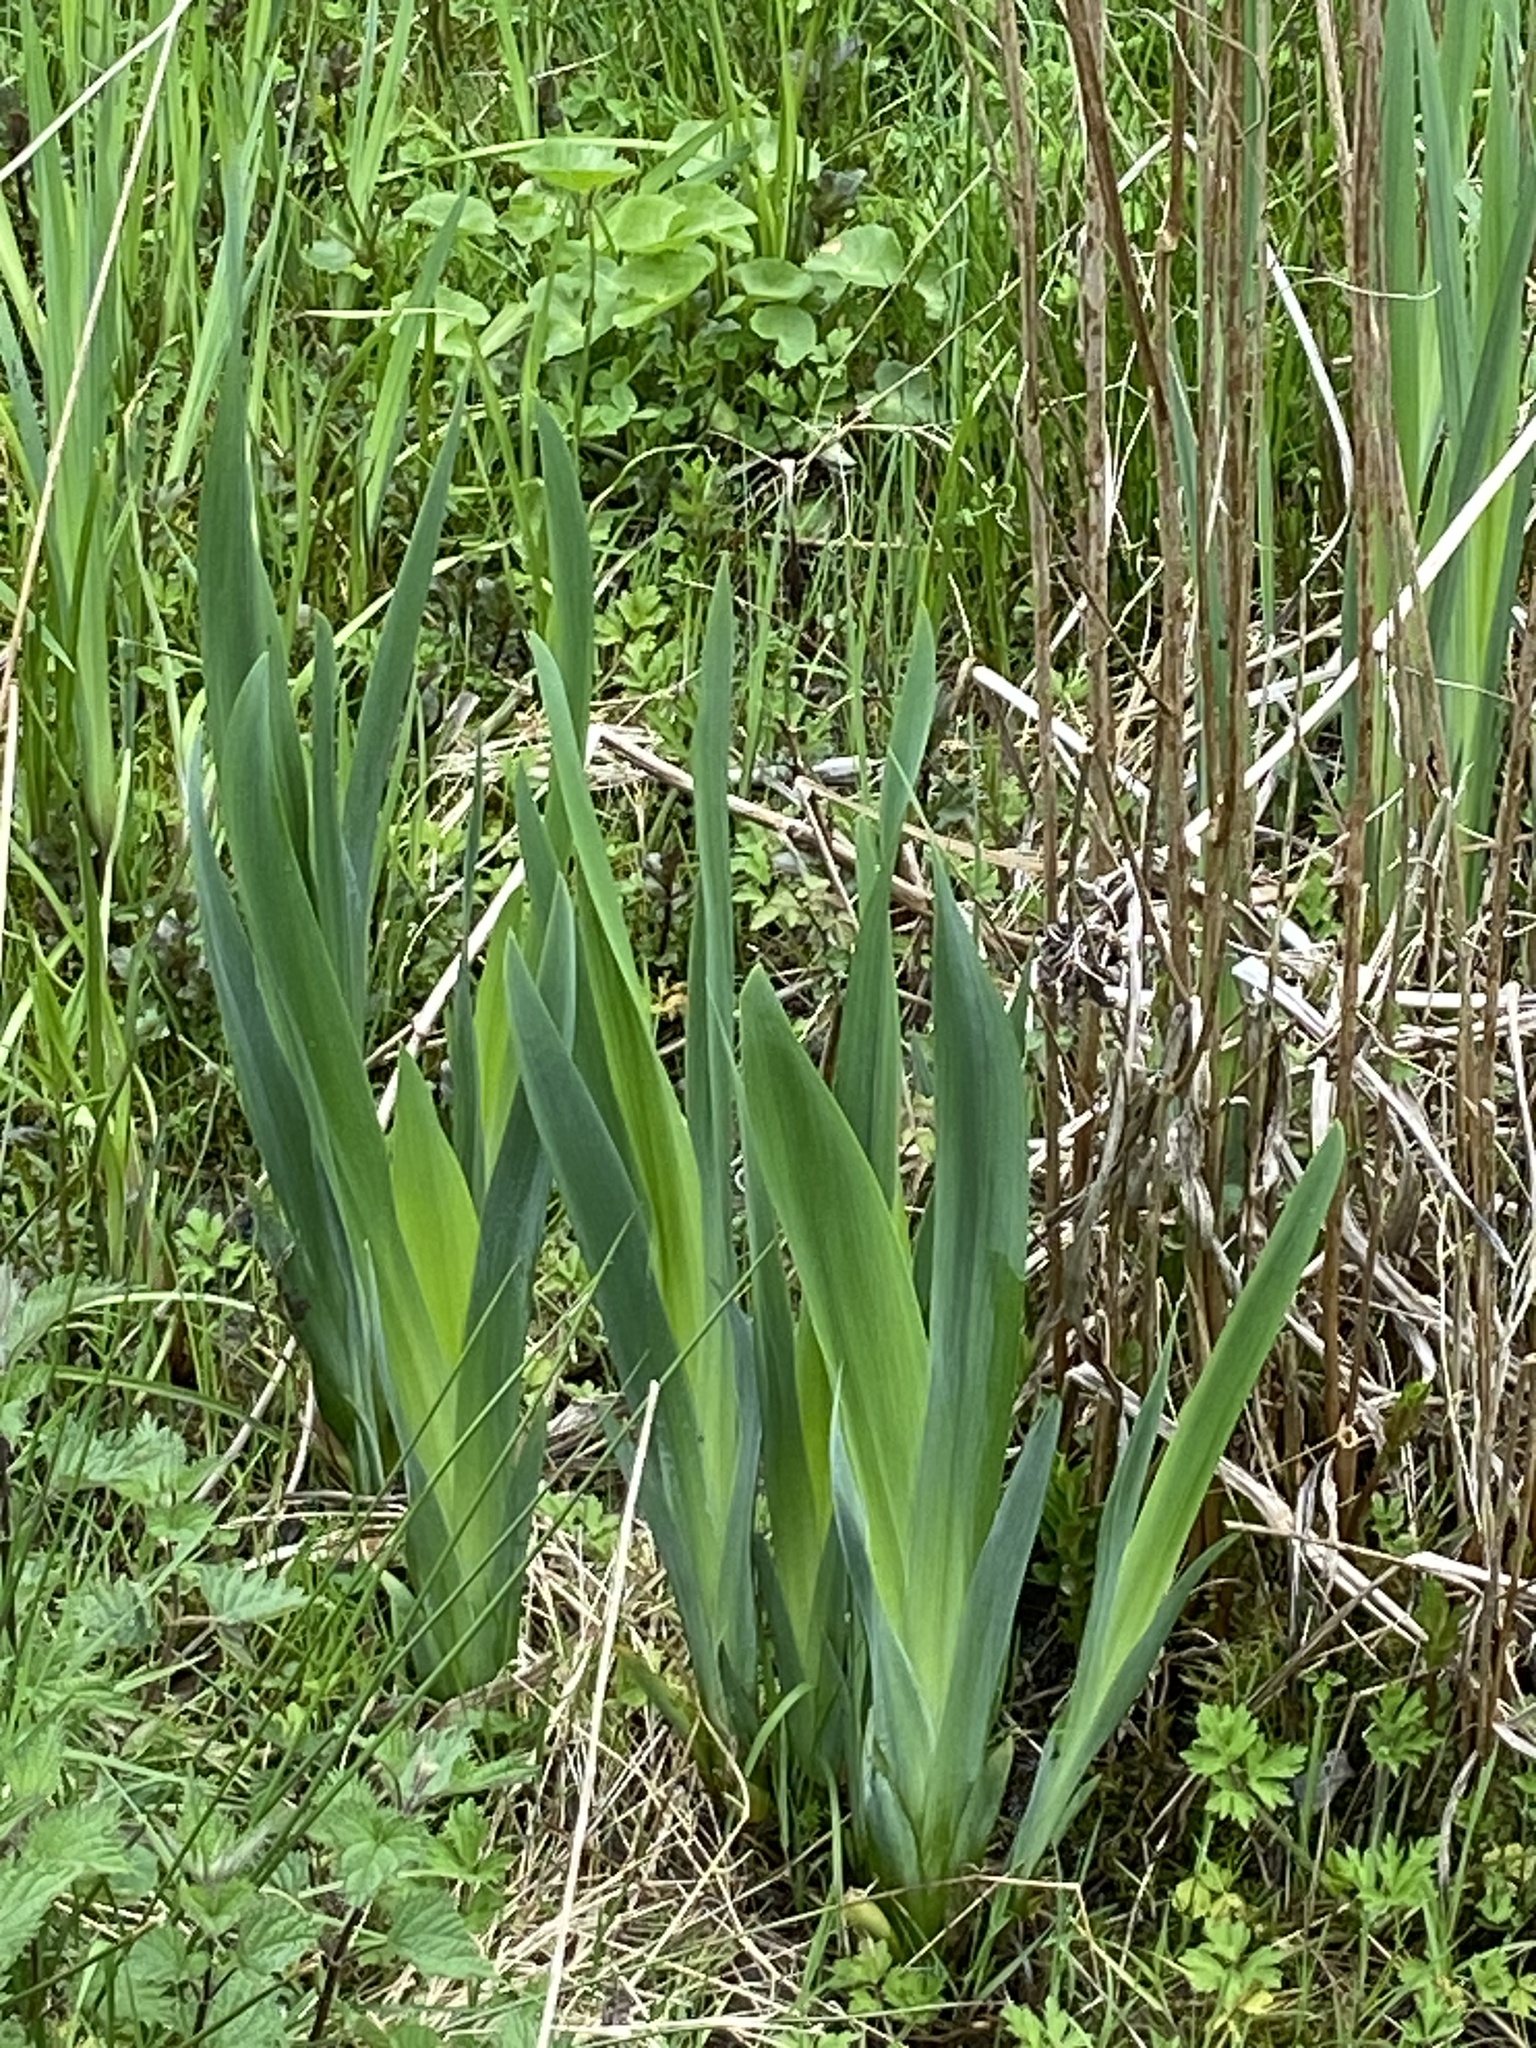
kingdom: Plantae
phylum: Tracheophyta
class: Liliopsida
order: Asparagales
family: Iridaceae
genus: Iris
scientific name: Iris pseudacorus
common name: Yellow flag
